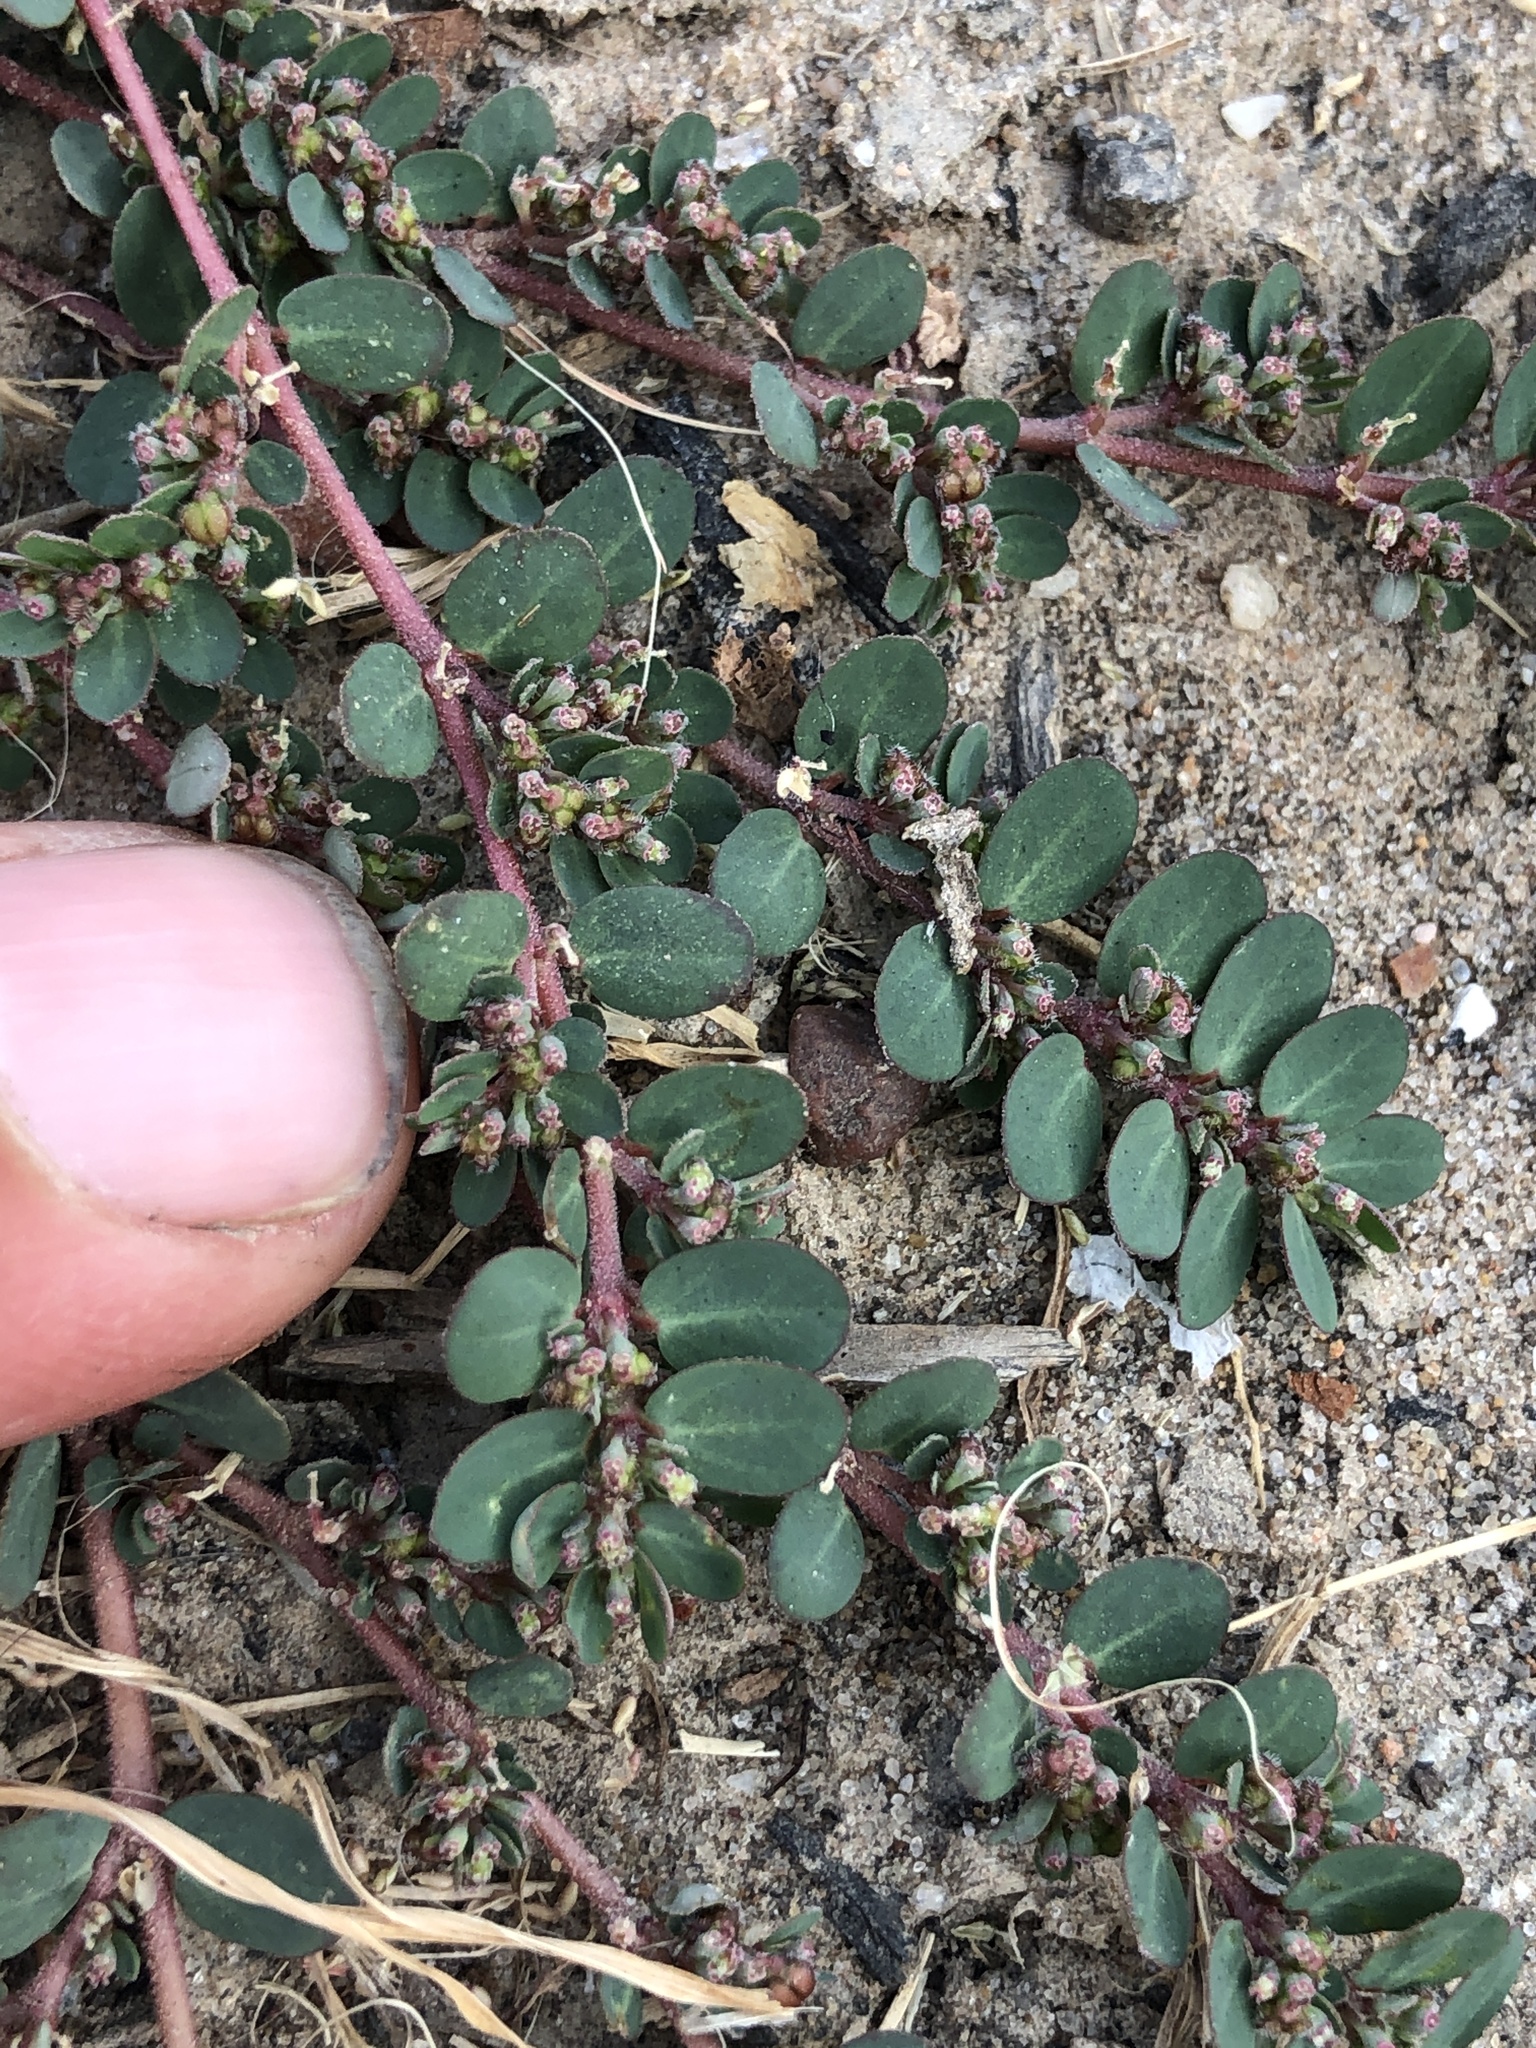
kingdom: Plantae
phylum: Tracheophyta
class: Magnoliopsida
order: Malpighiales
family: Euphorbiaceae
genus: Euphorbia
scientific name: Euphorbia prostrata
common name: Prostrate sandmat
